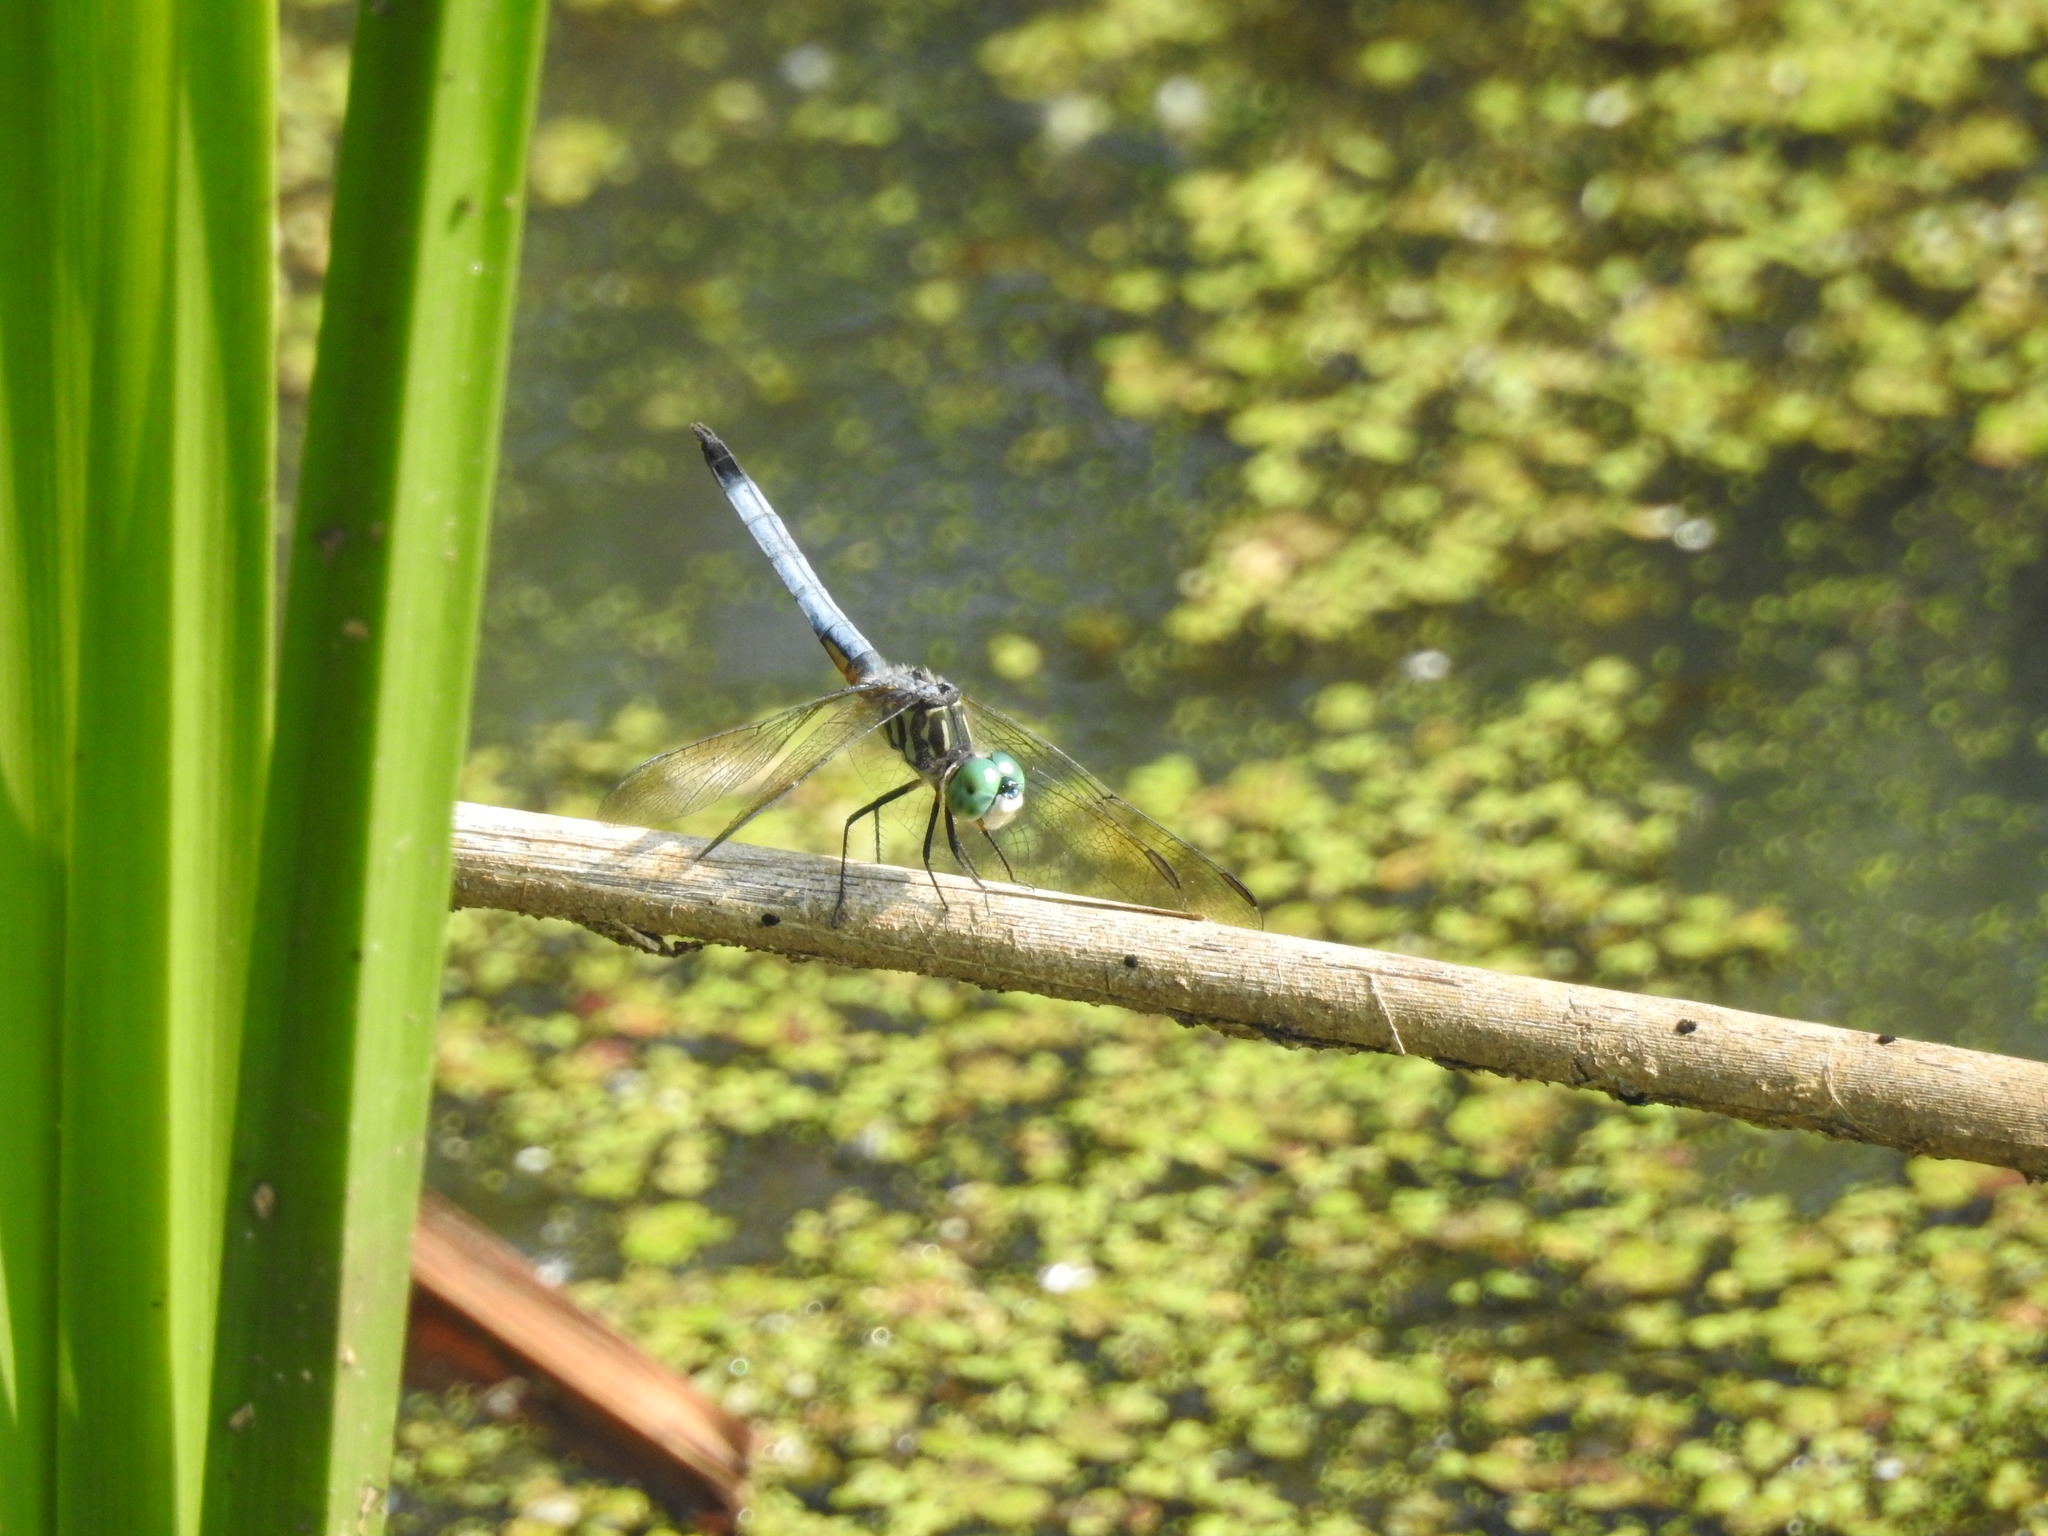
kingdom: Animalia
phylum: Arthropoda
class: Insecta
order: Odonata
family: Libellulidae
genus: Pachydiplax
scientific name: Pachydiplax longipennis
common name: Blue dasher
